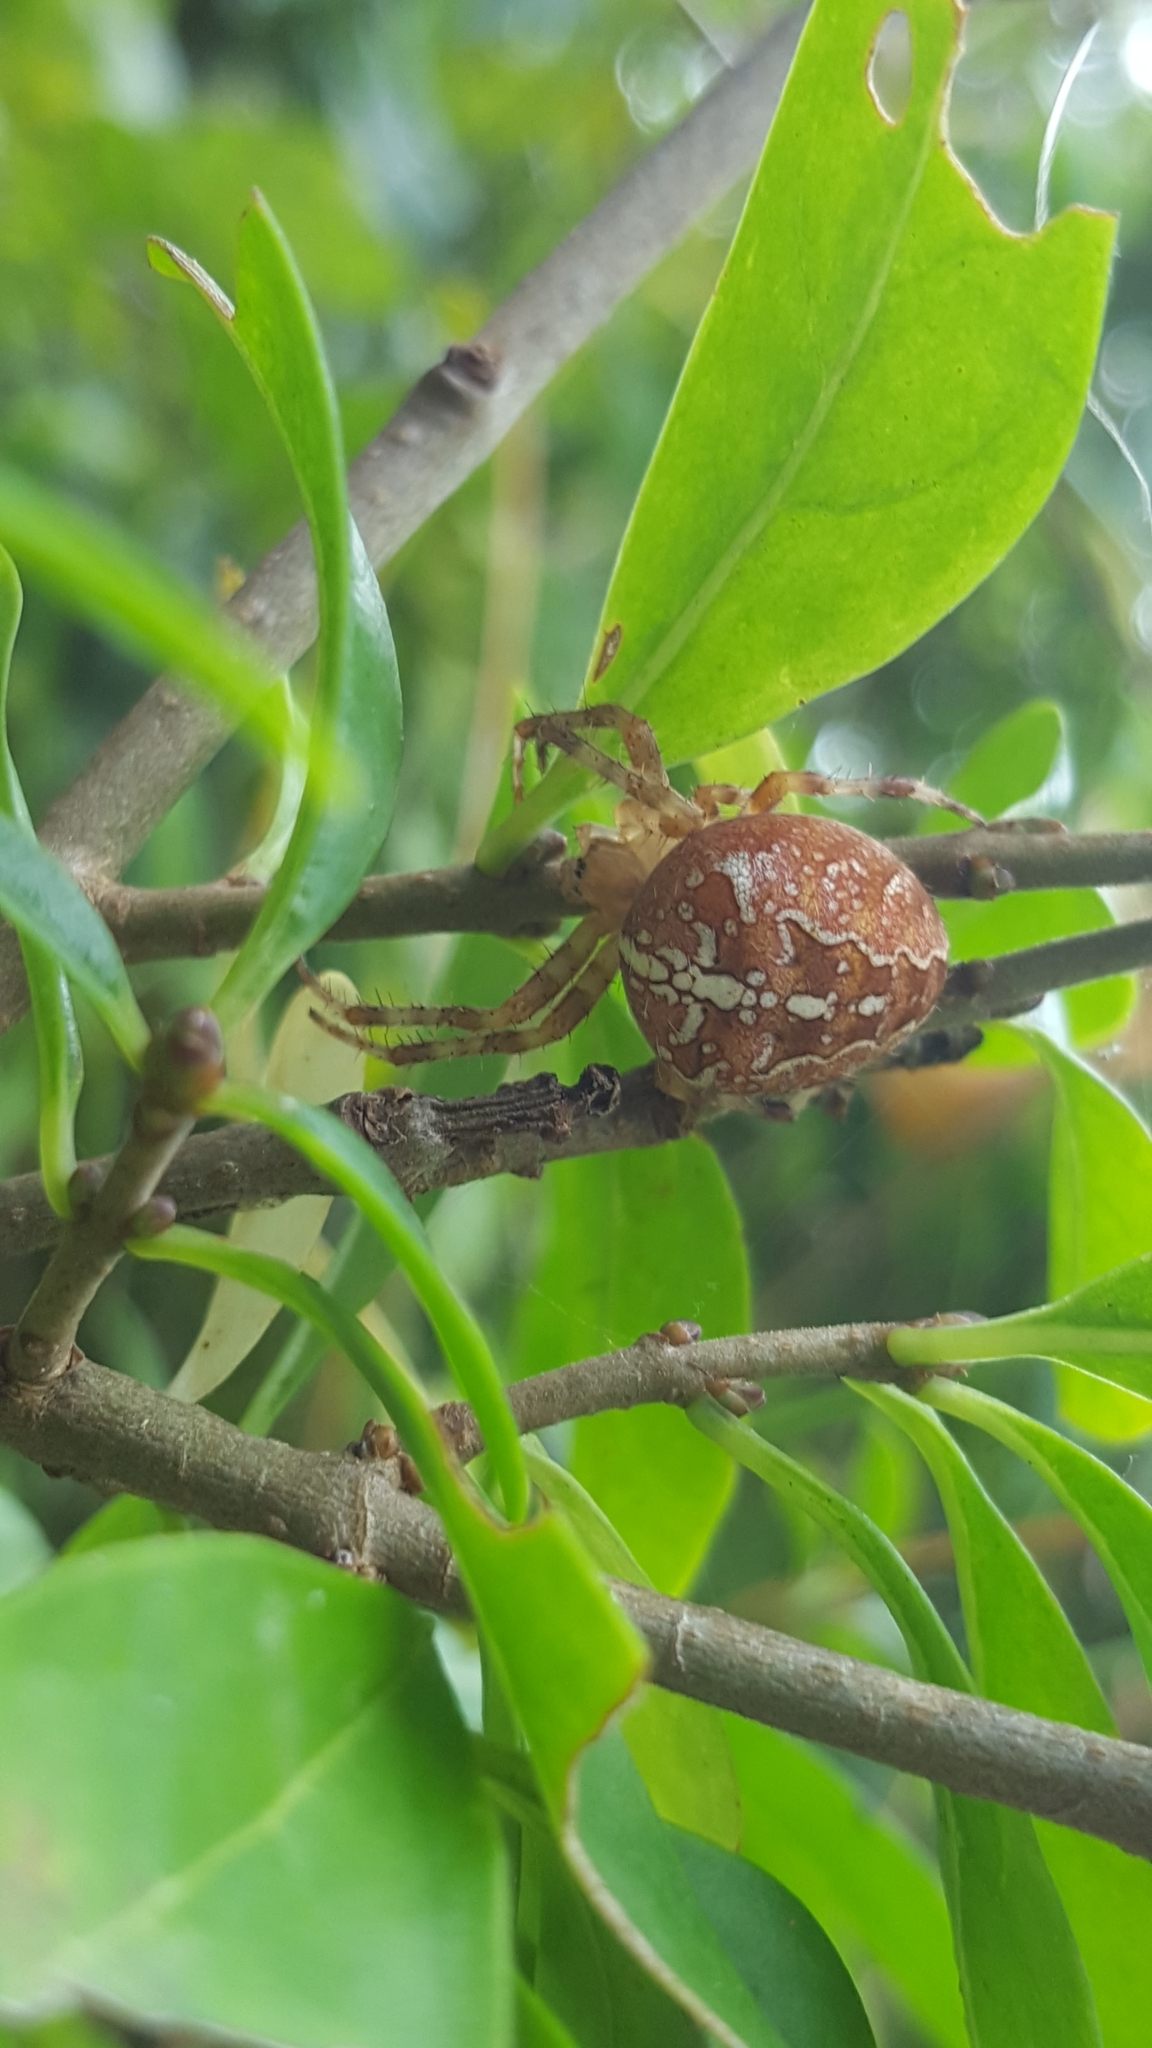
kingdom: Animalia
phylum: Arthropoda
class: Arachnida
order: Araneae
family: Araneidae
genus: Araneus
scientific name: Araneus diadematus
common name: Cross orbweaver
